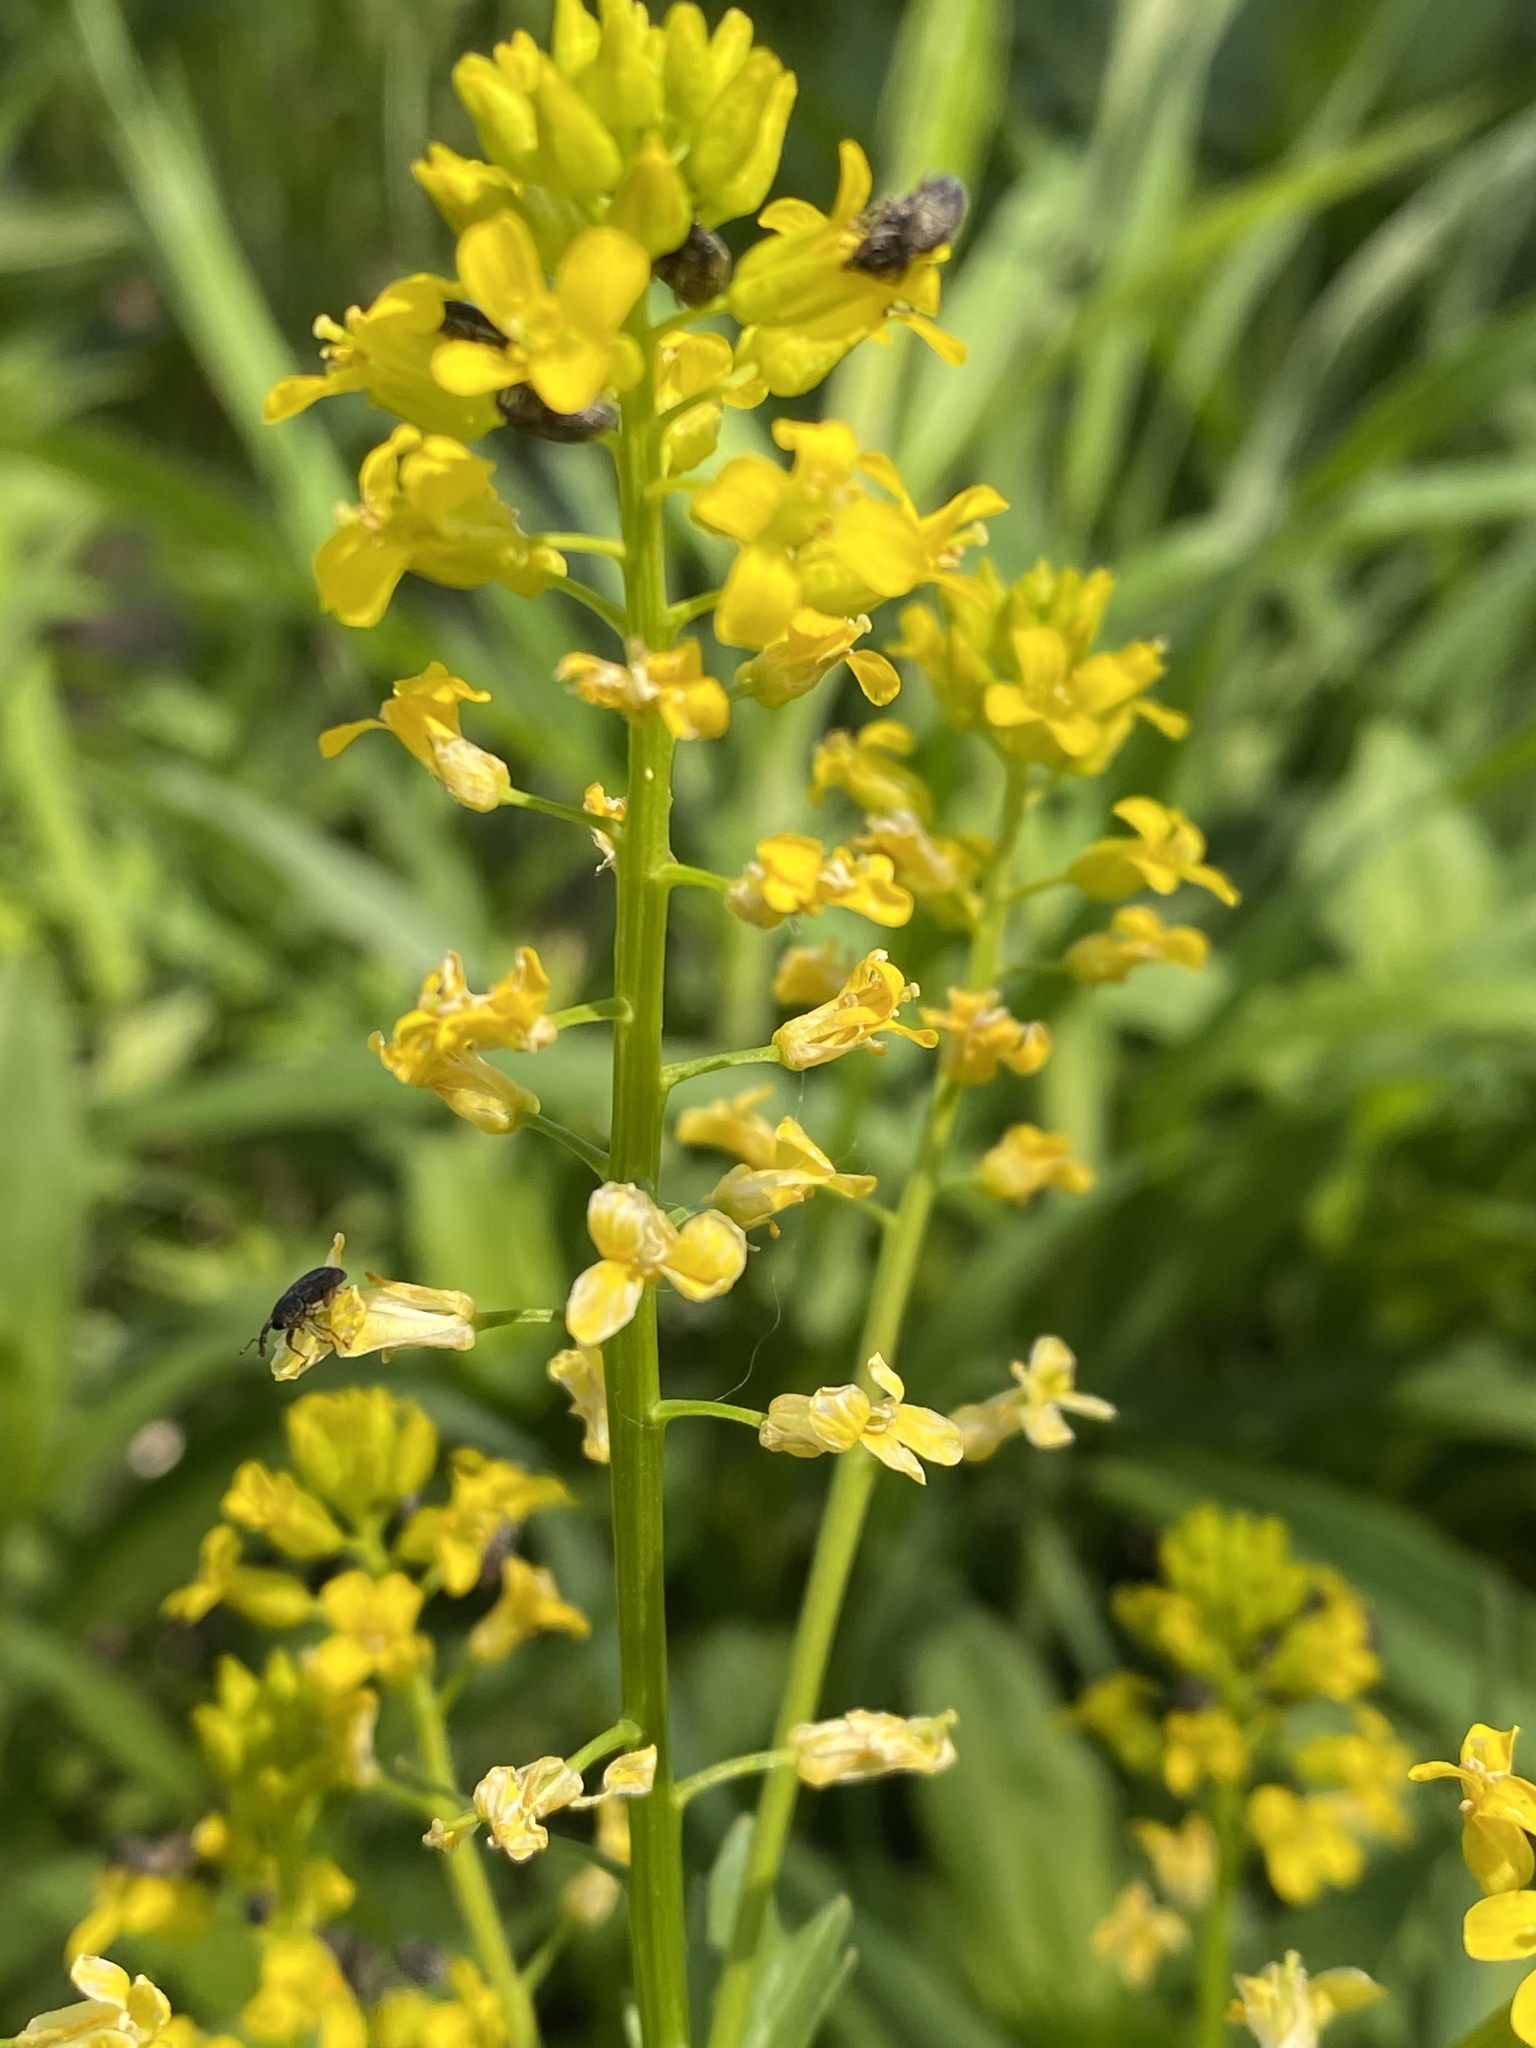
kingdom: Plantae
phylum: Tracheophyta
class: Magnoliopsida
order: Brassicales
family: Brassicaceae
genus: Barbarea
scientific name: Barbarea vulgaris
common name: Cressy-greens
